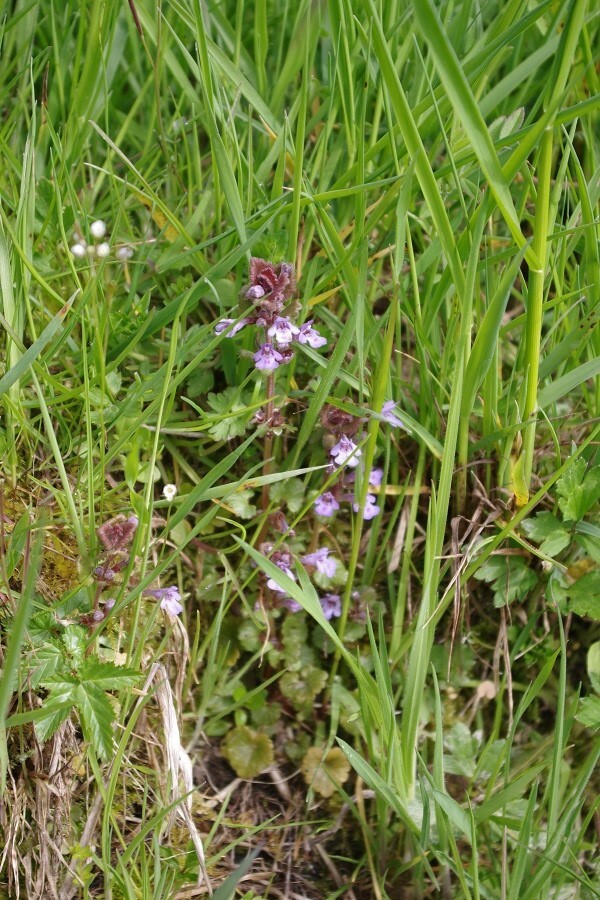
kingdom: Plantae
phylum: Tracheophyta
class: Magnoliopsida
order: Lamiales
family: Lamiaceae
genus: Glechoma
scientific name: Glechoma hederacea
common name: Ground ivy
